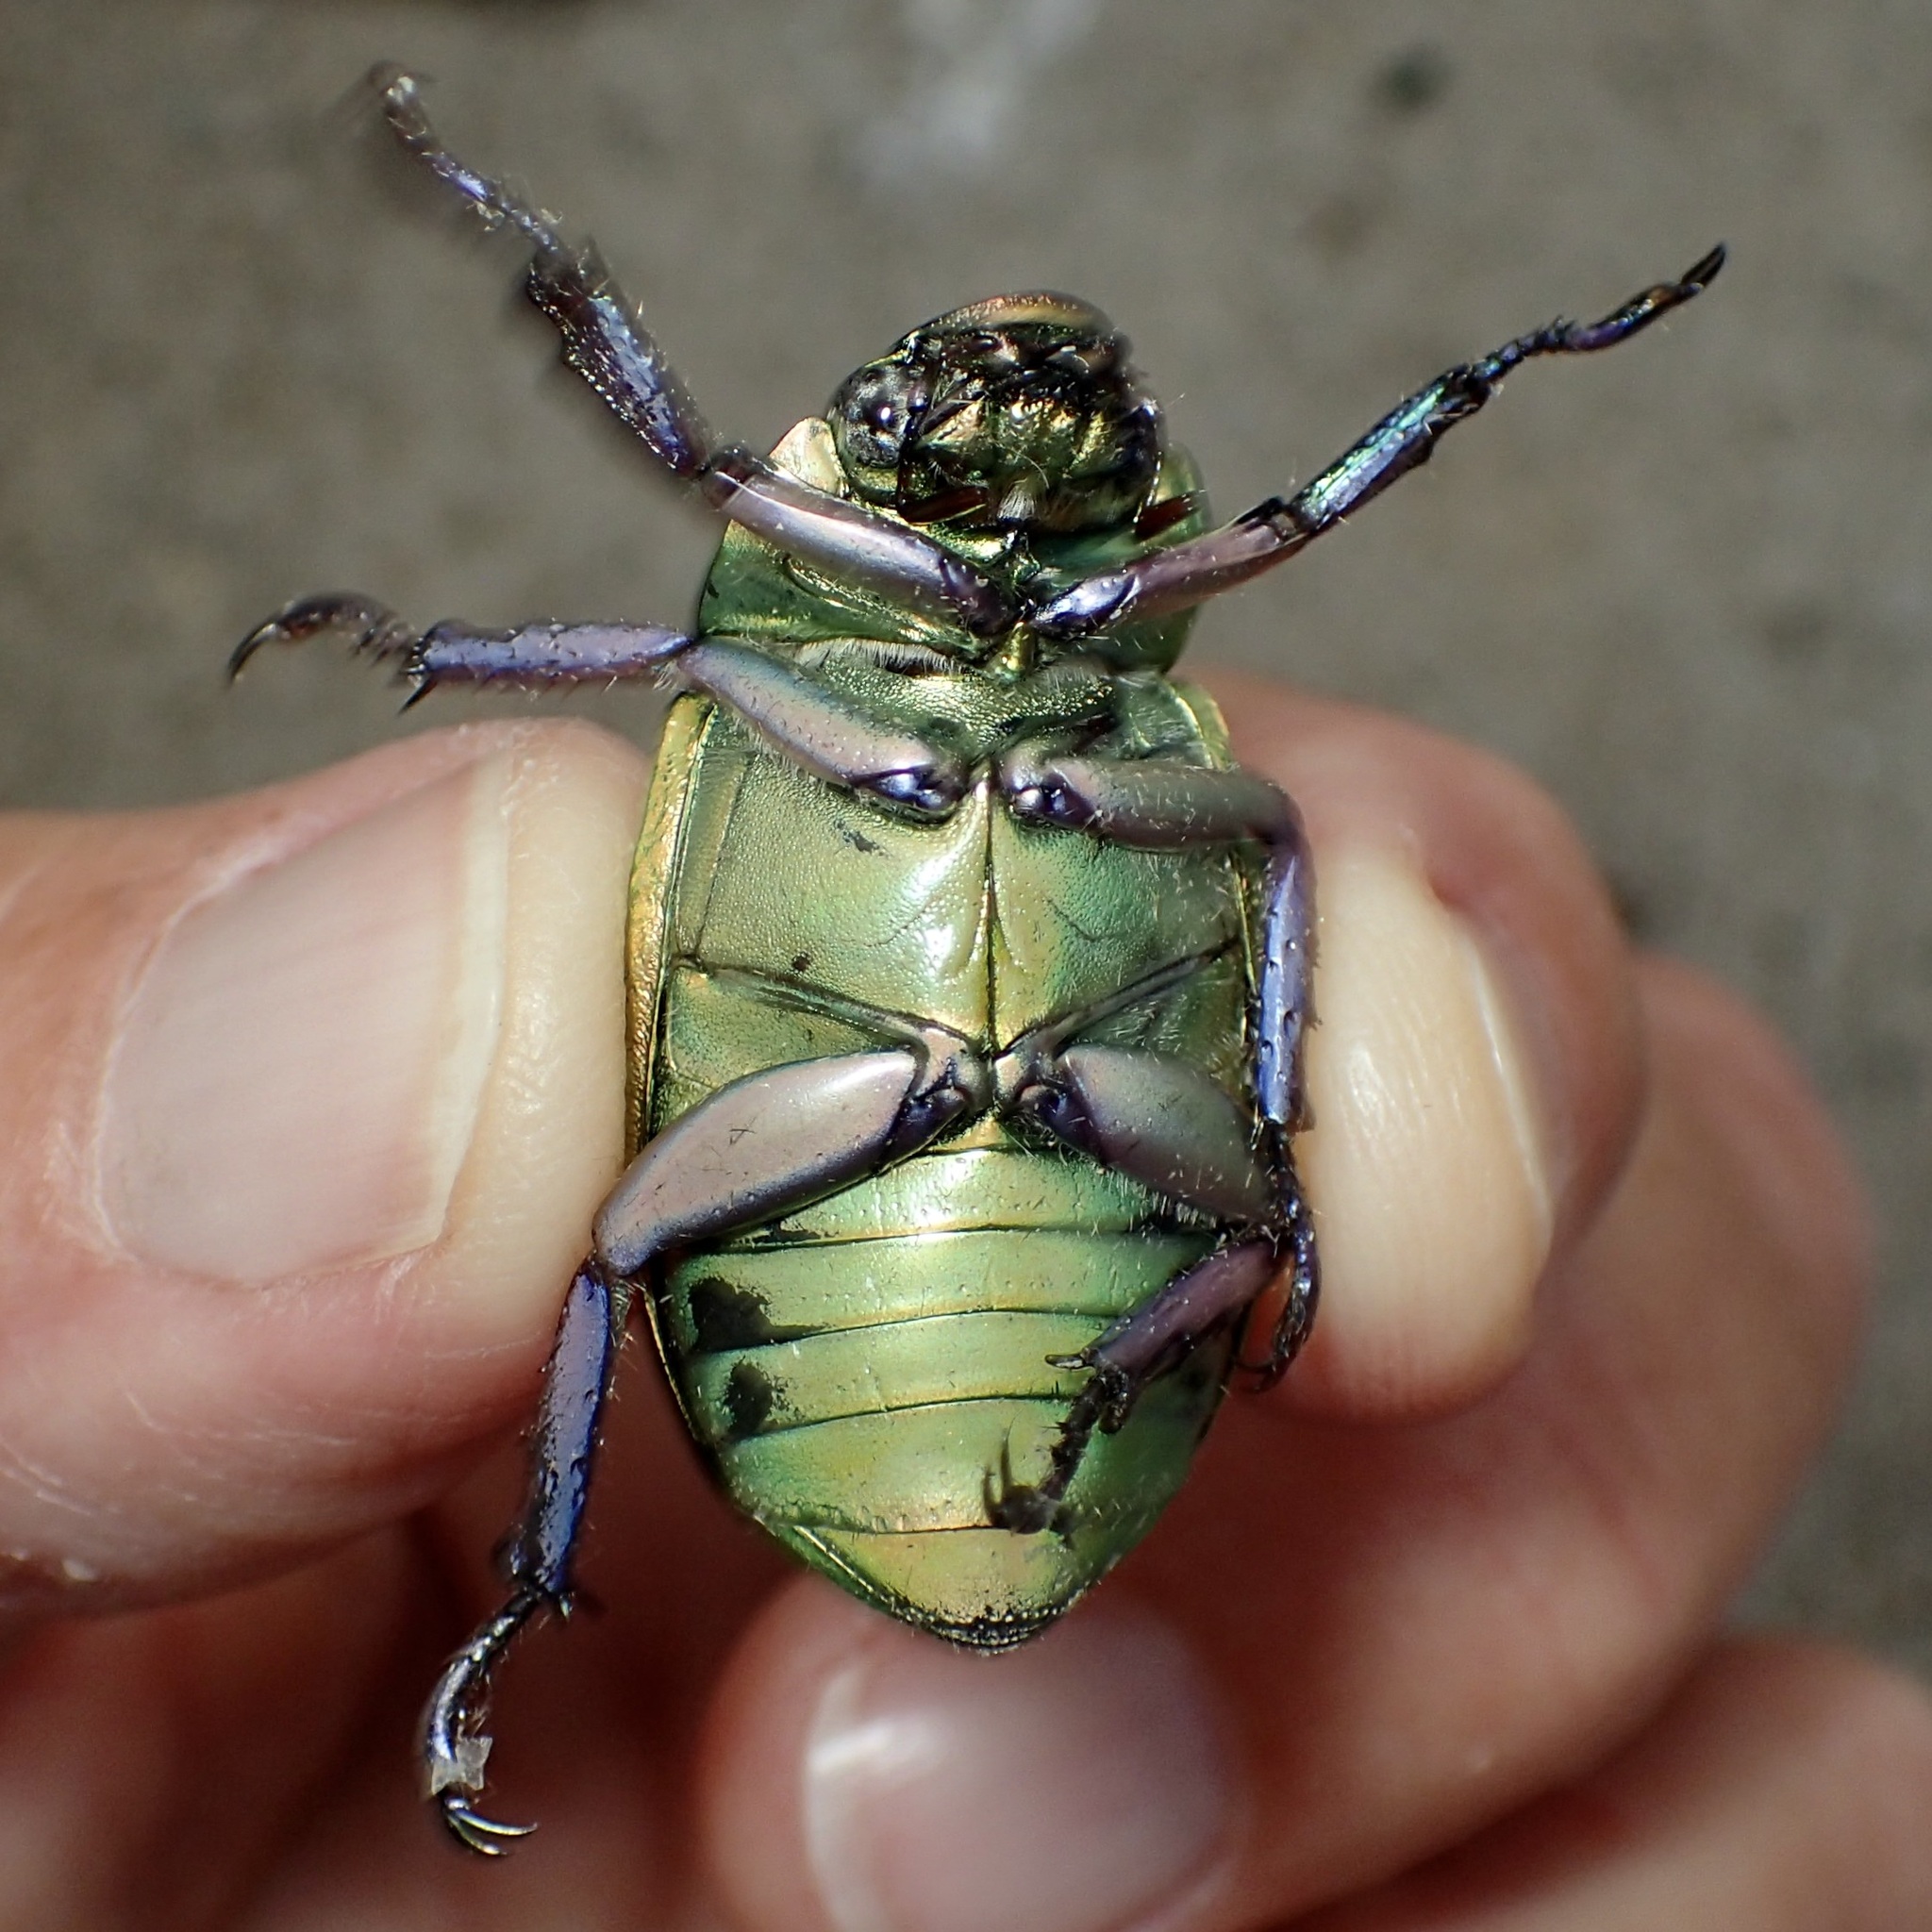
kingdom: Animalia
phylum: Arthropoda
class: Insecta
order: Coleoptera
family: Scarabaeidae
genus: Chrysina
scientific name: Chrysina beyeri
